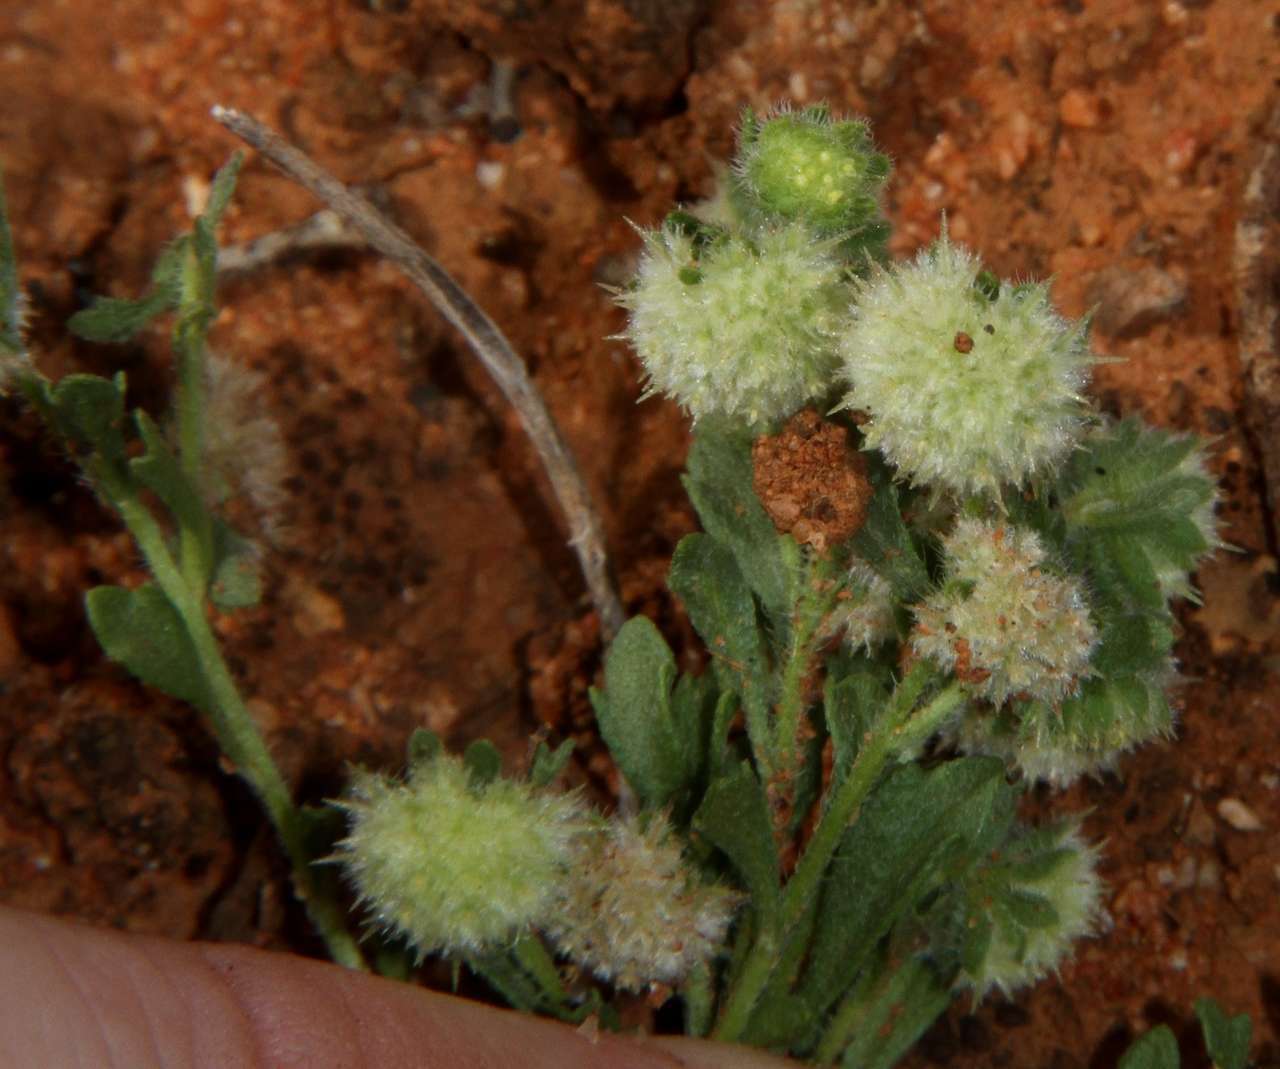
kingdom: Plantae
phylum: Tracheophyta
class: Magnoliopsida
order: Asterales
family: Asteraceae
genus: Calotis
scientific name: Calotis hispidula
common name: Bogan-flea
